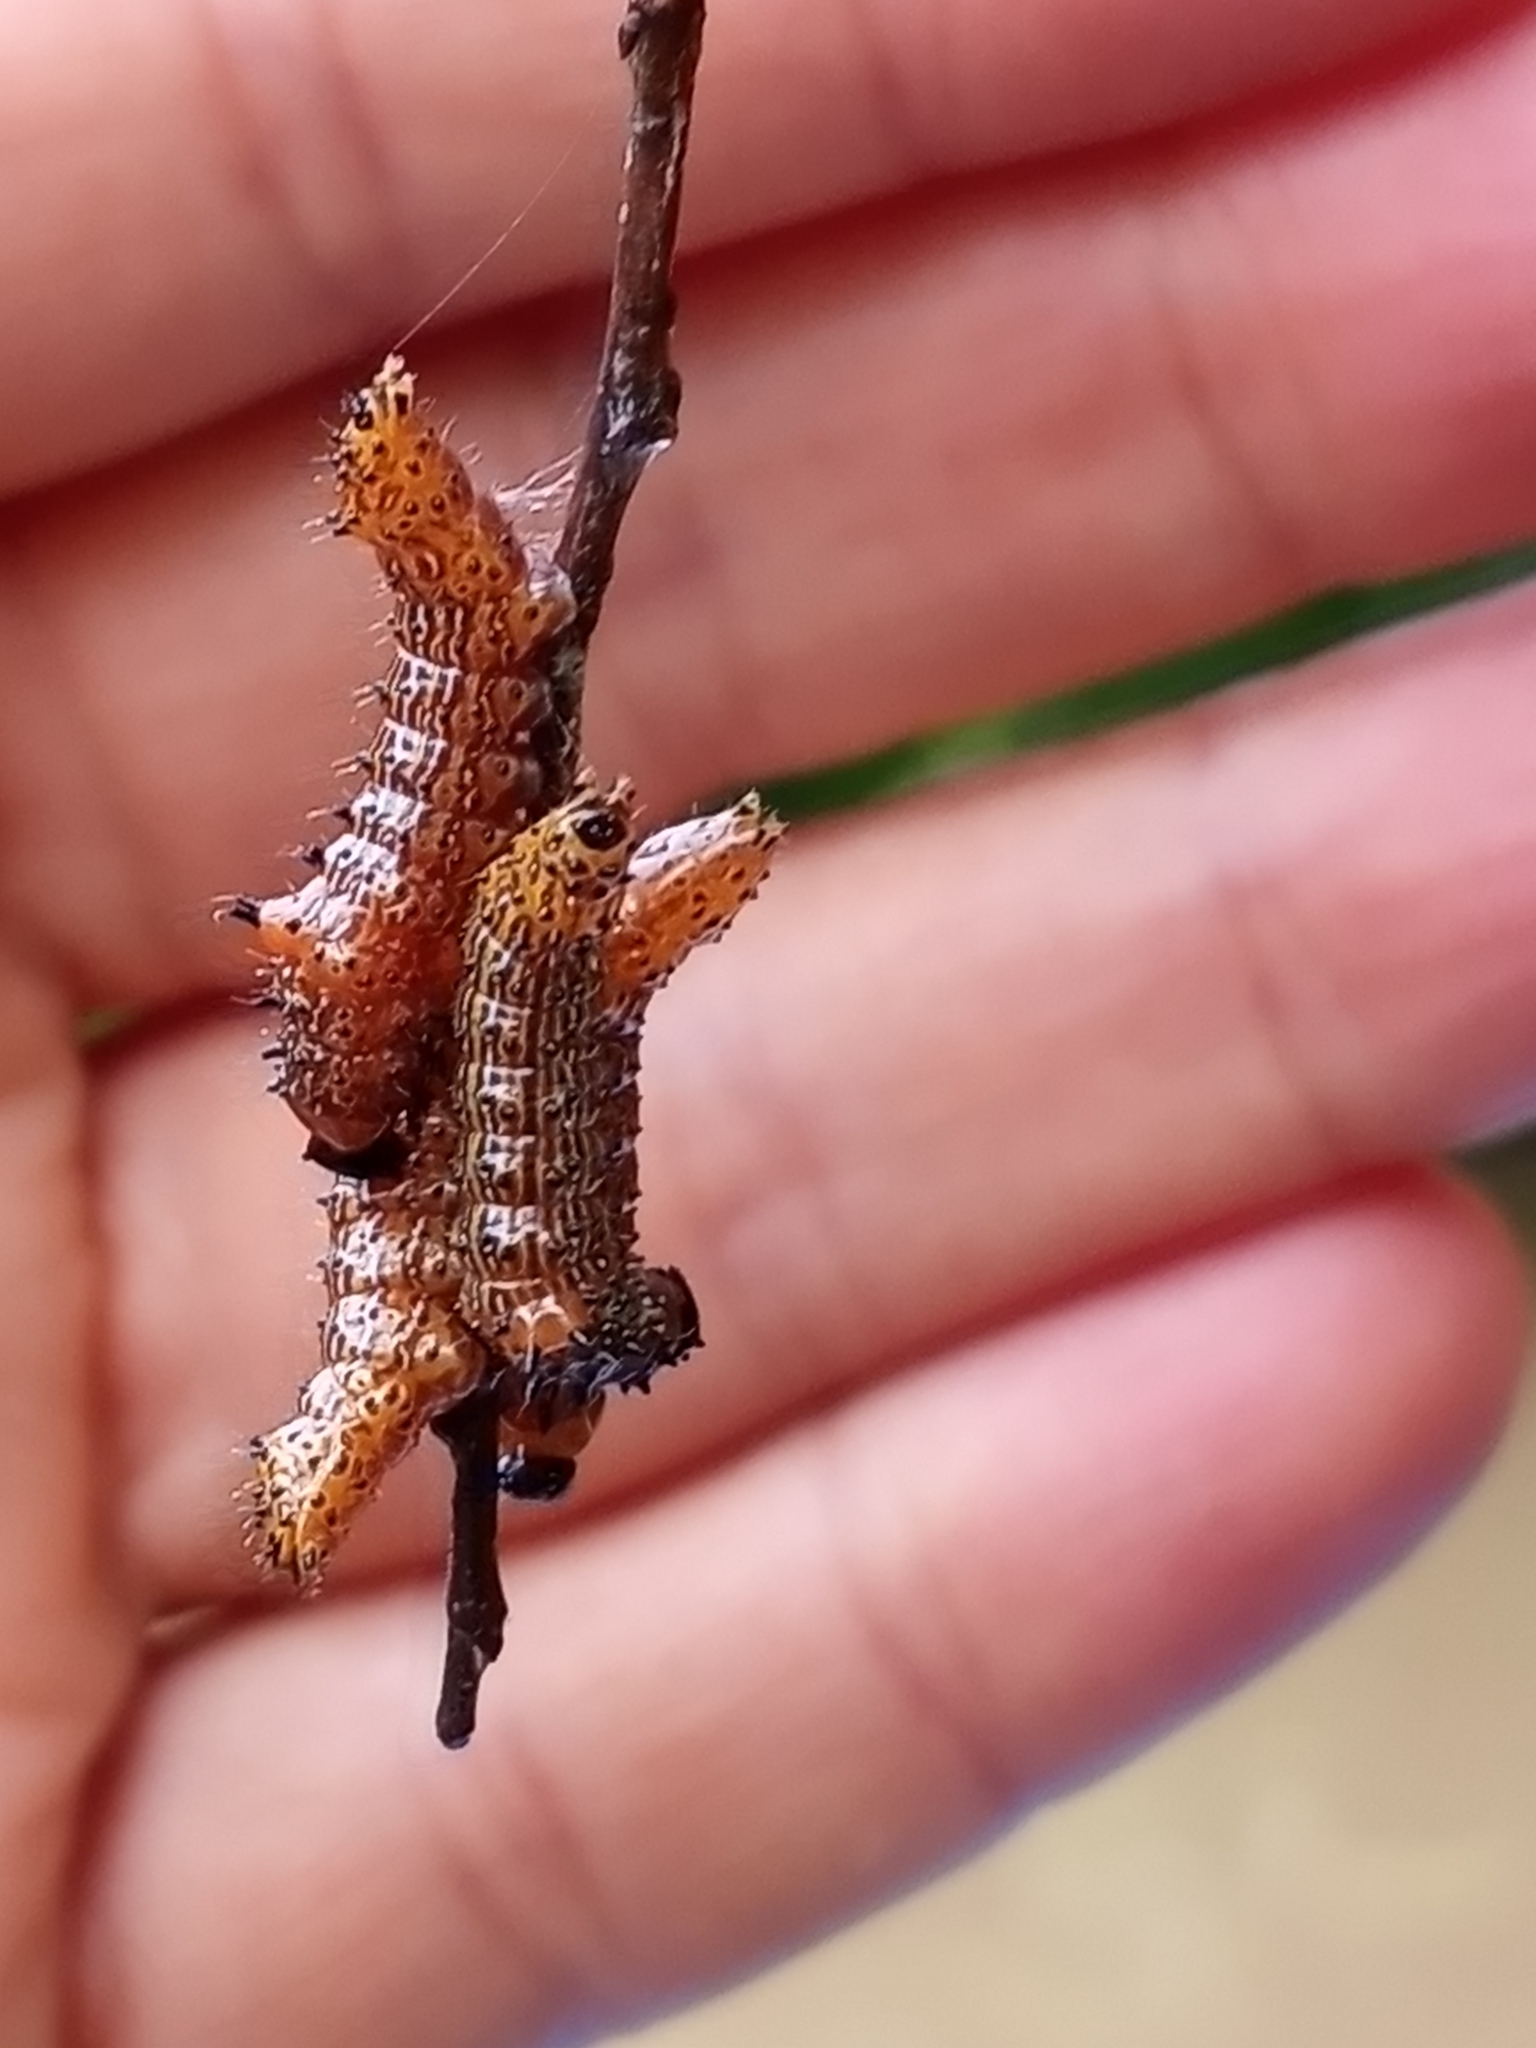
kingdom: Animalia
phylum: Arthropoda
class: Insecta
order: Lepidoptera
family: Notodontidae
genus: Schizura
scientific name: Schizura
